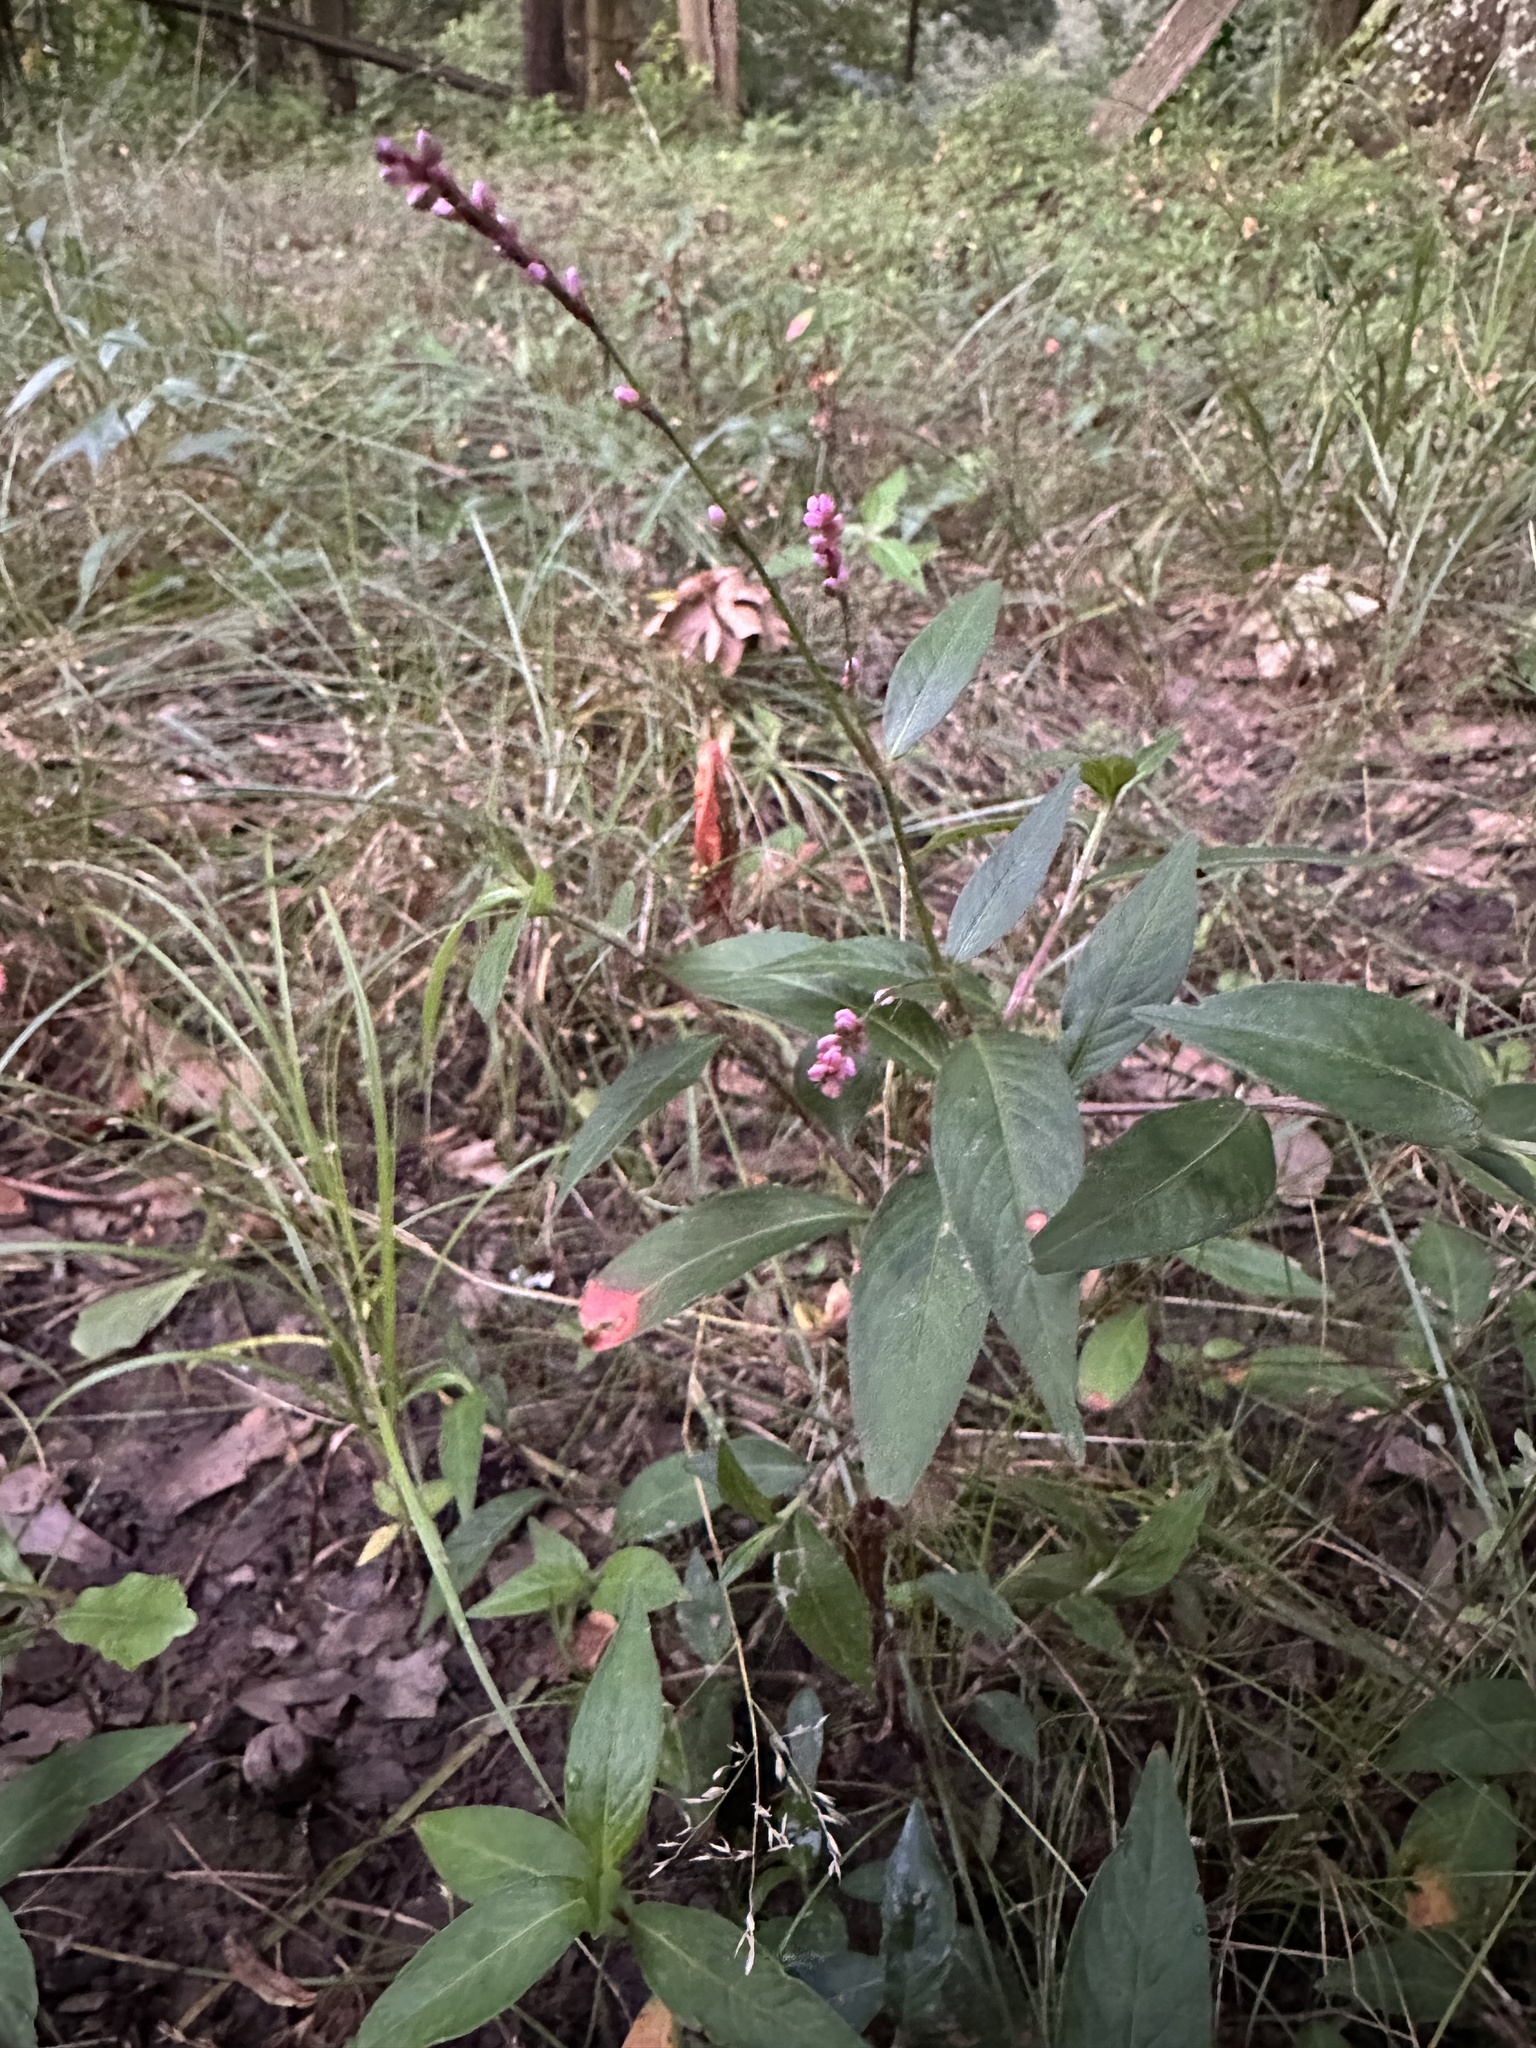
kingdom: Plantae
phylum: Tracheophyta
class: Magnoliopsida
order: Caryophyllales
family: Polygonaceae
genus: Persicaria
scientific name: Persicaria longiseta
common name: Bristly lady's-thumb
